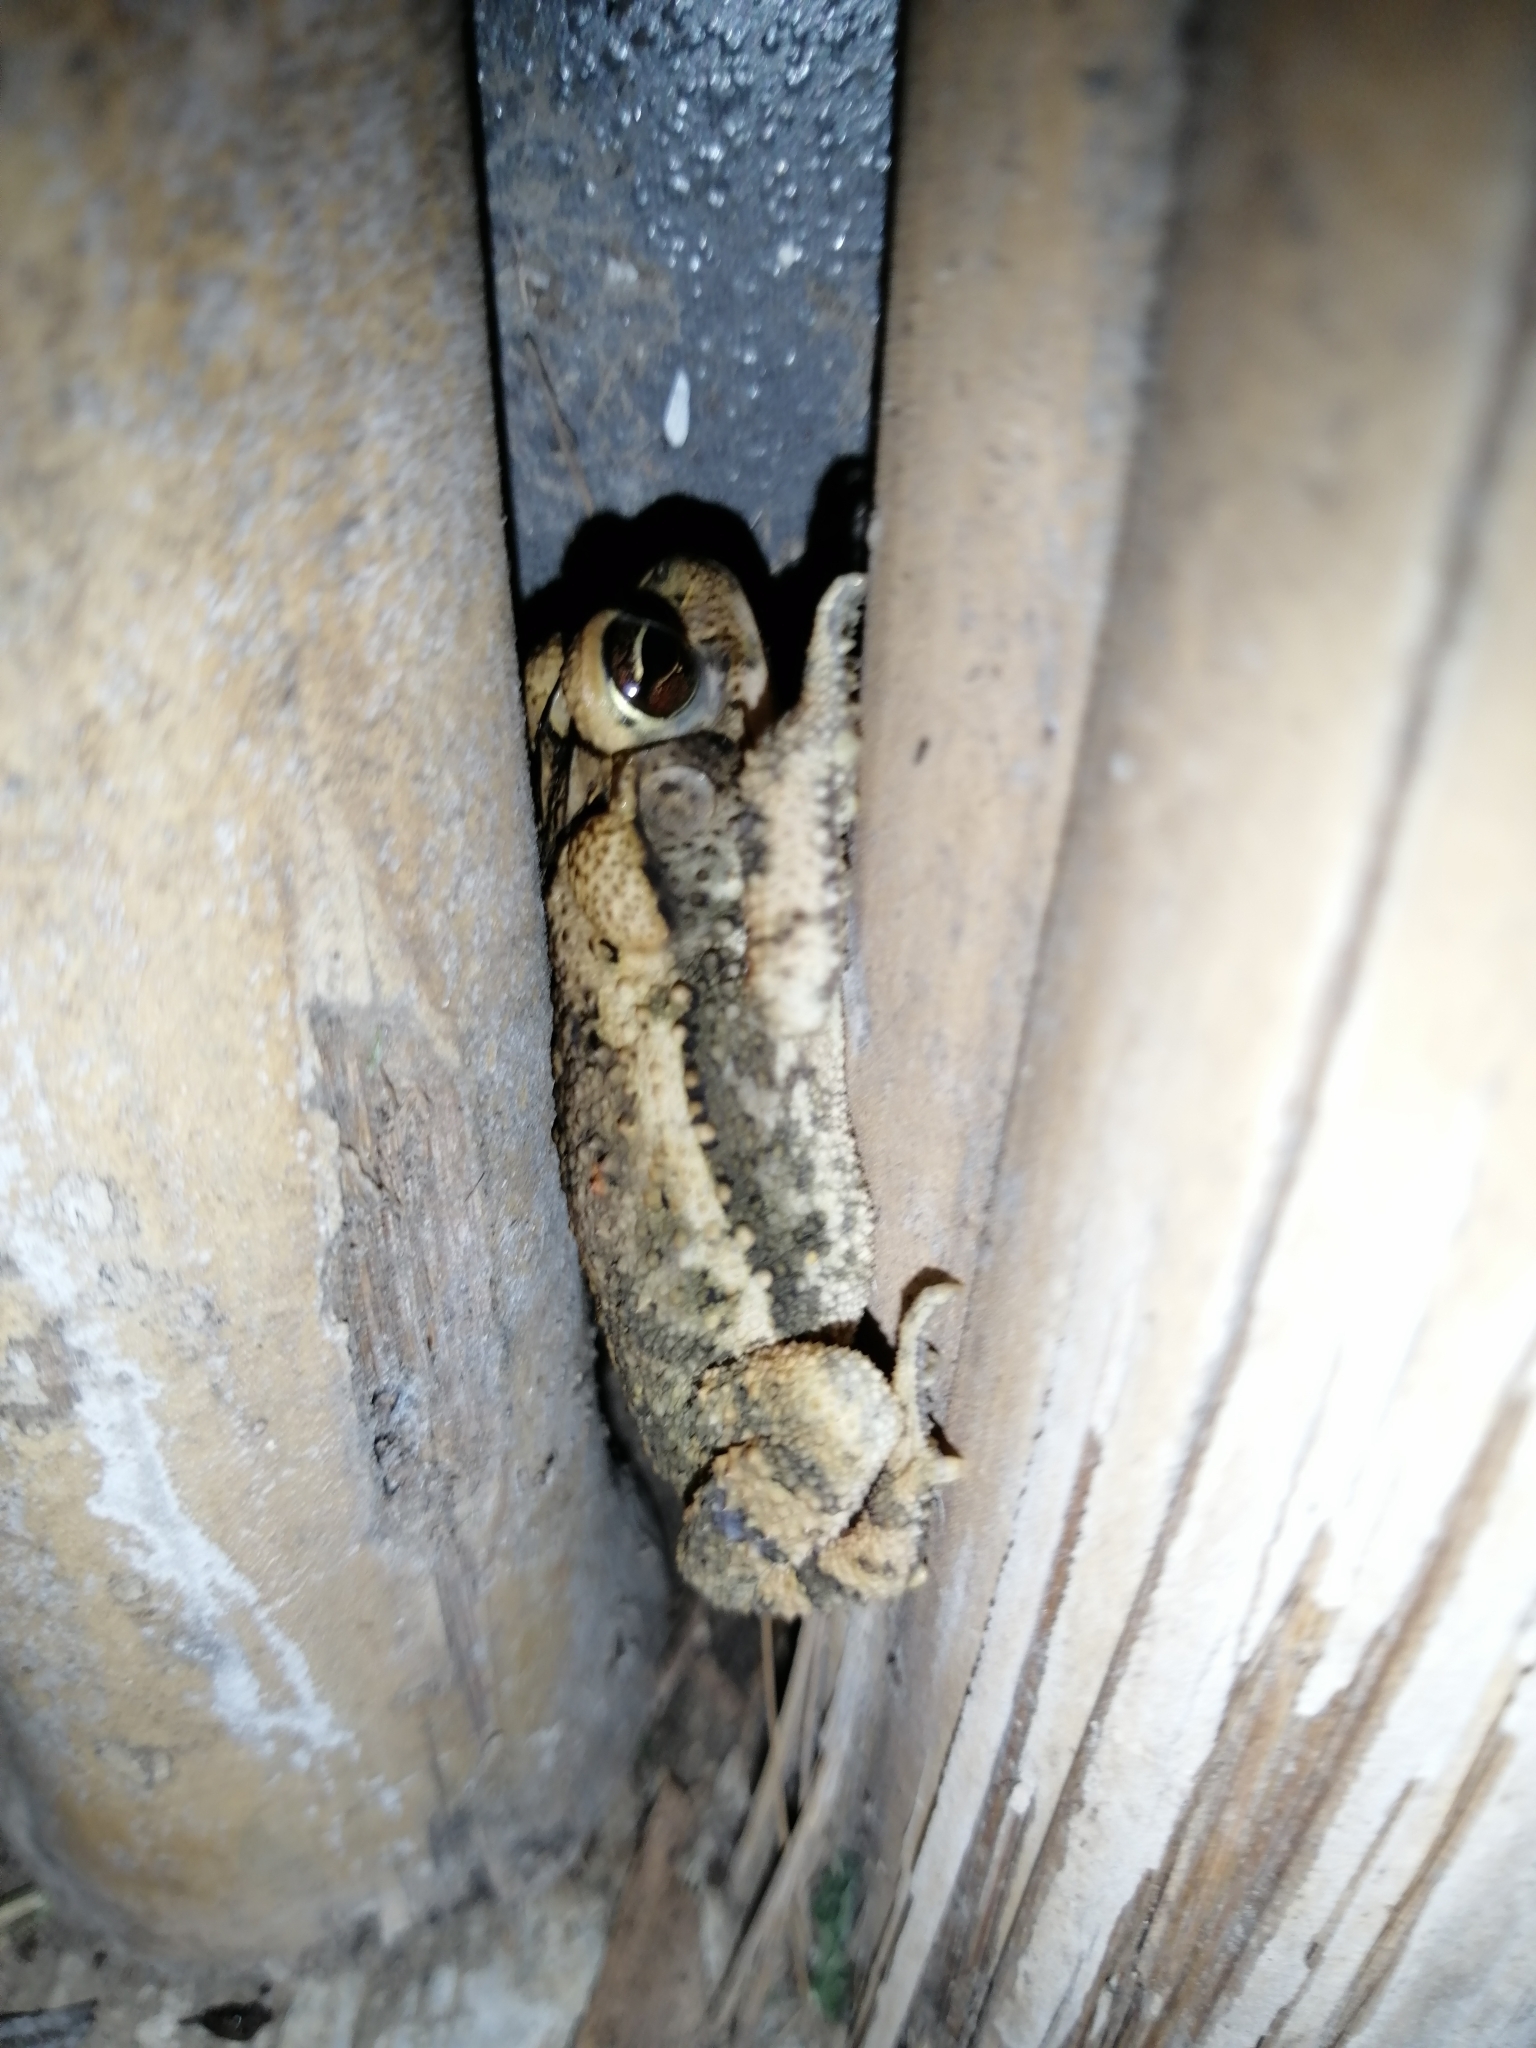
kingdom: Animalia
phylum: Chordata
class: Amphibia
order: Anura
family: Bufonidae
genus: Incilius
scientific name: Incilius nebulifer
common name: Gulf coast toad
